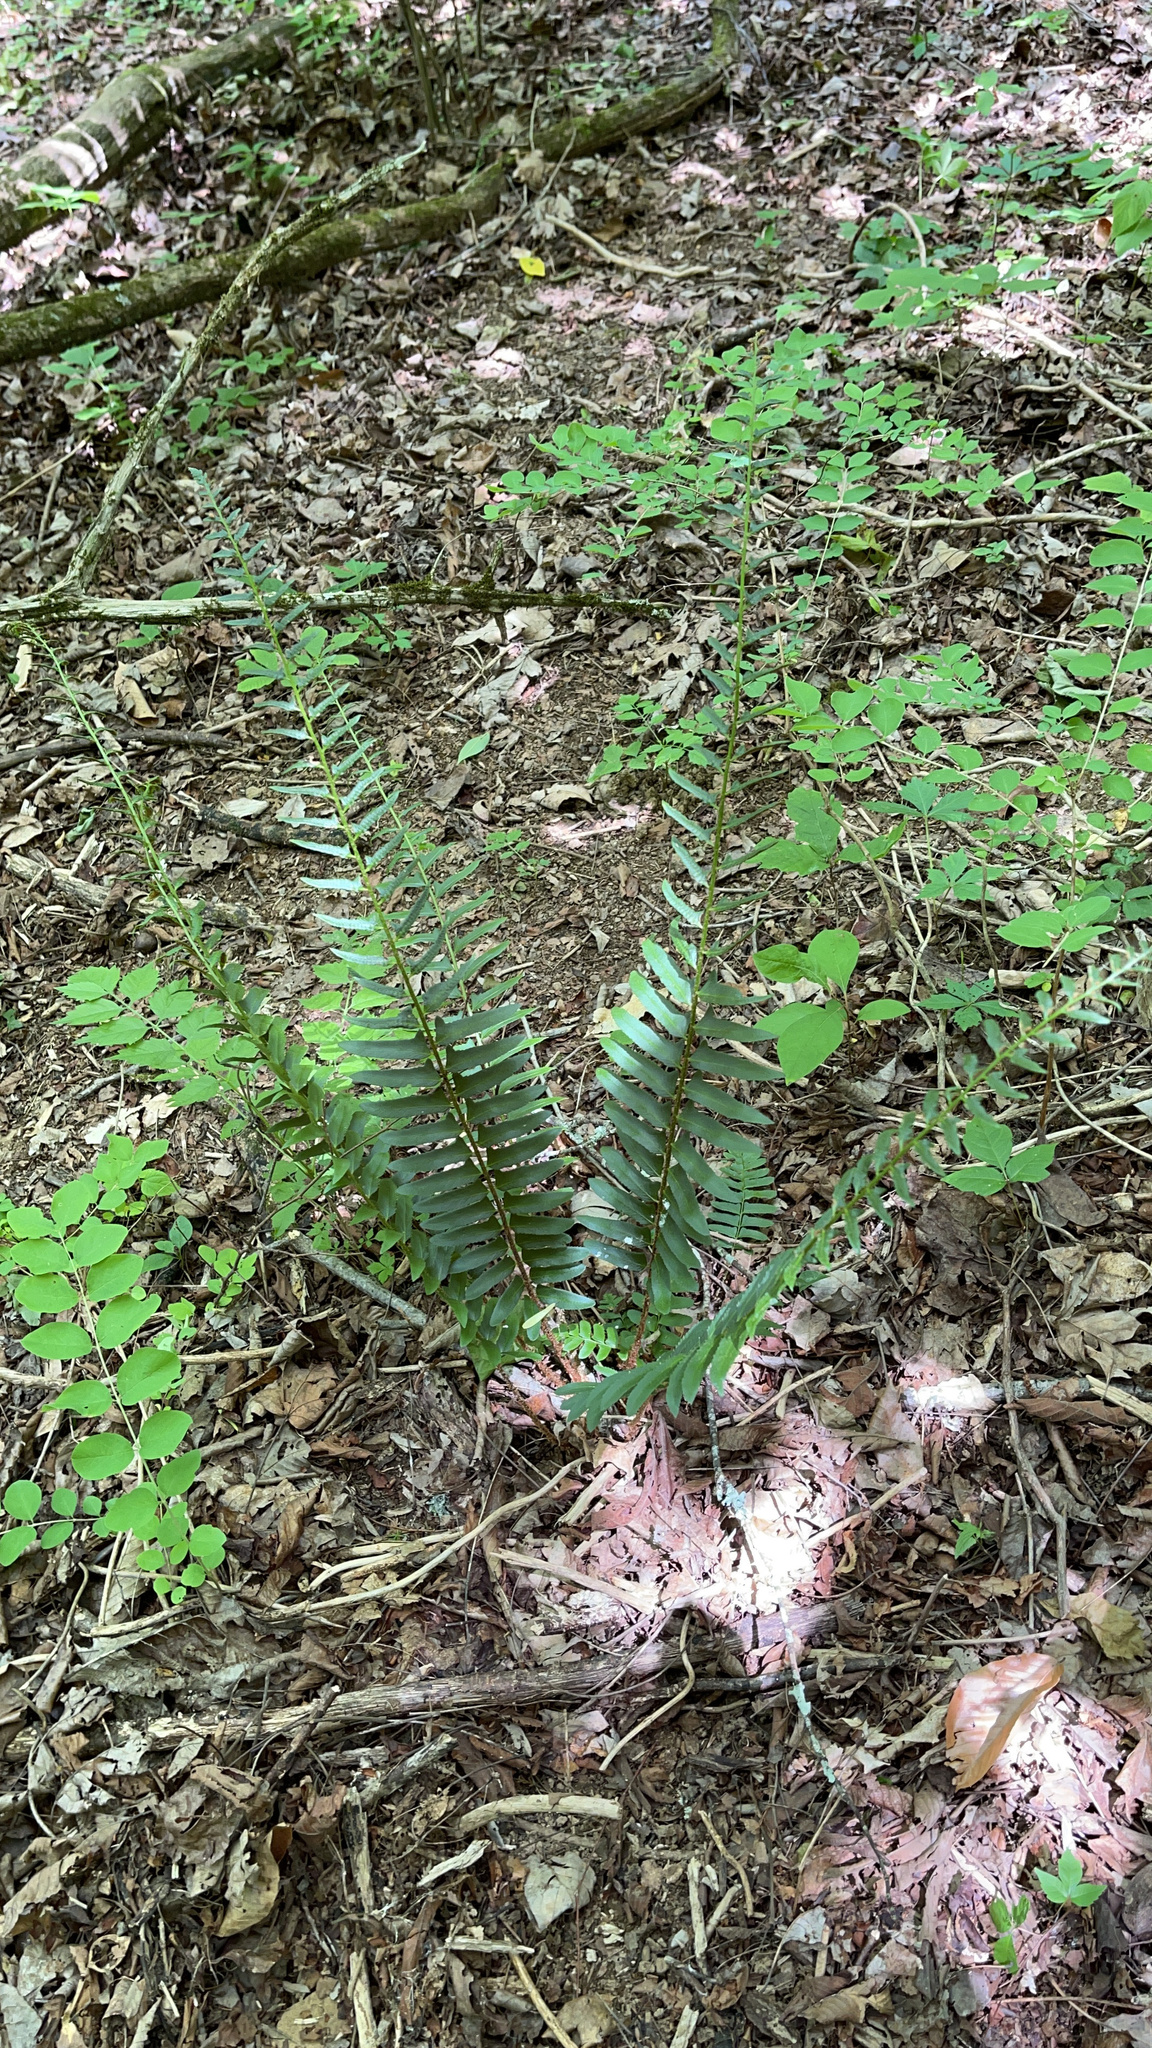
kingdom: Plantae
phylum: Tracheophyta
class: Polypodiopsida
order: Polypodiales
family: Dryopteridaceae
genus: Polystichum
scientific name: Polystichum acrostichoides
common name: Christmas fern
